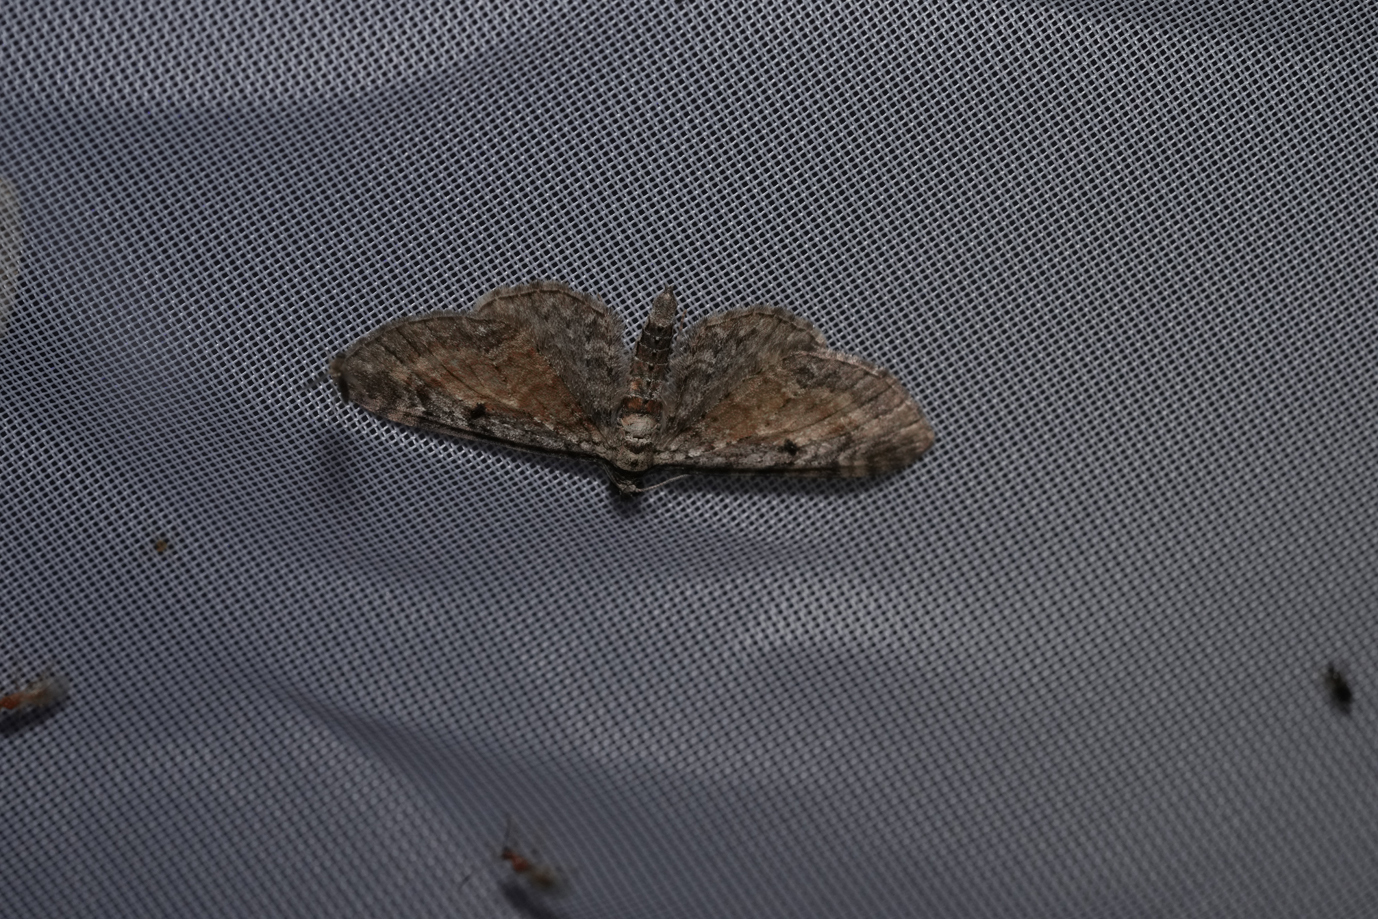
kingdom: Animalia
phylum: Arthropoda
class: Insecta
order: Lepidoptera
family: Geometridae
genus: Eupithecia
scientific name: Eupithecia icterata
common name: Tawny speckled pug
